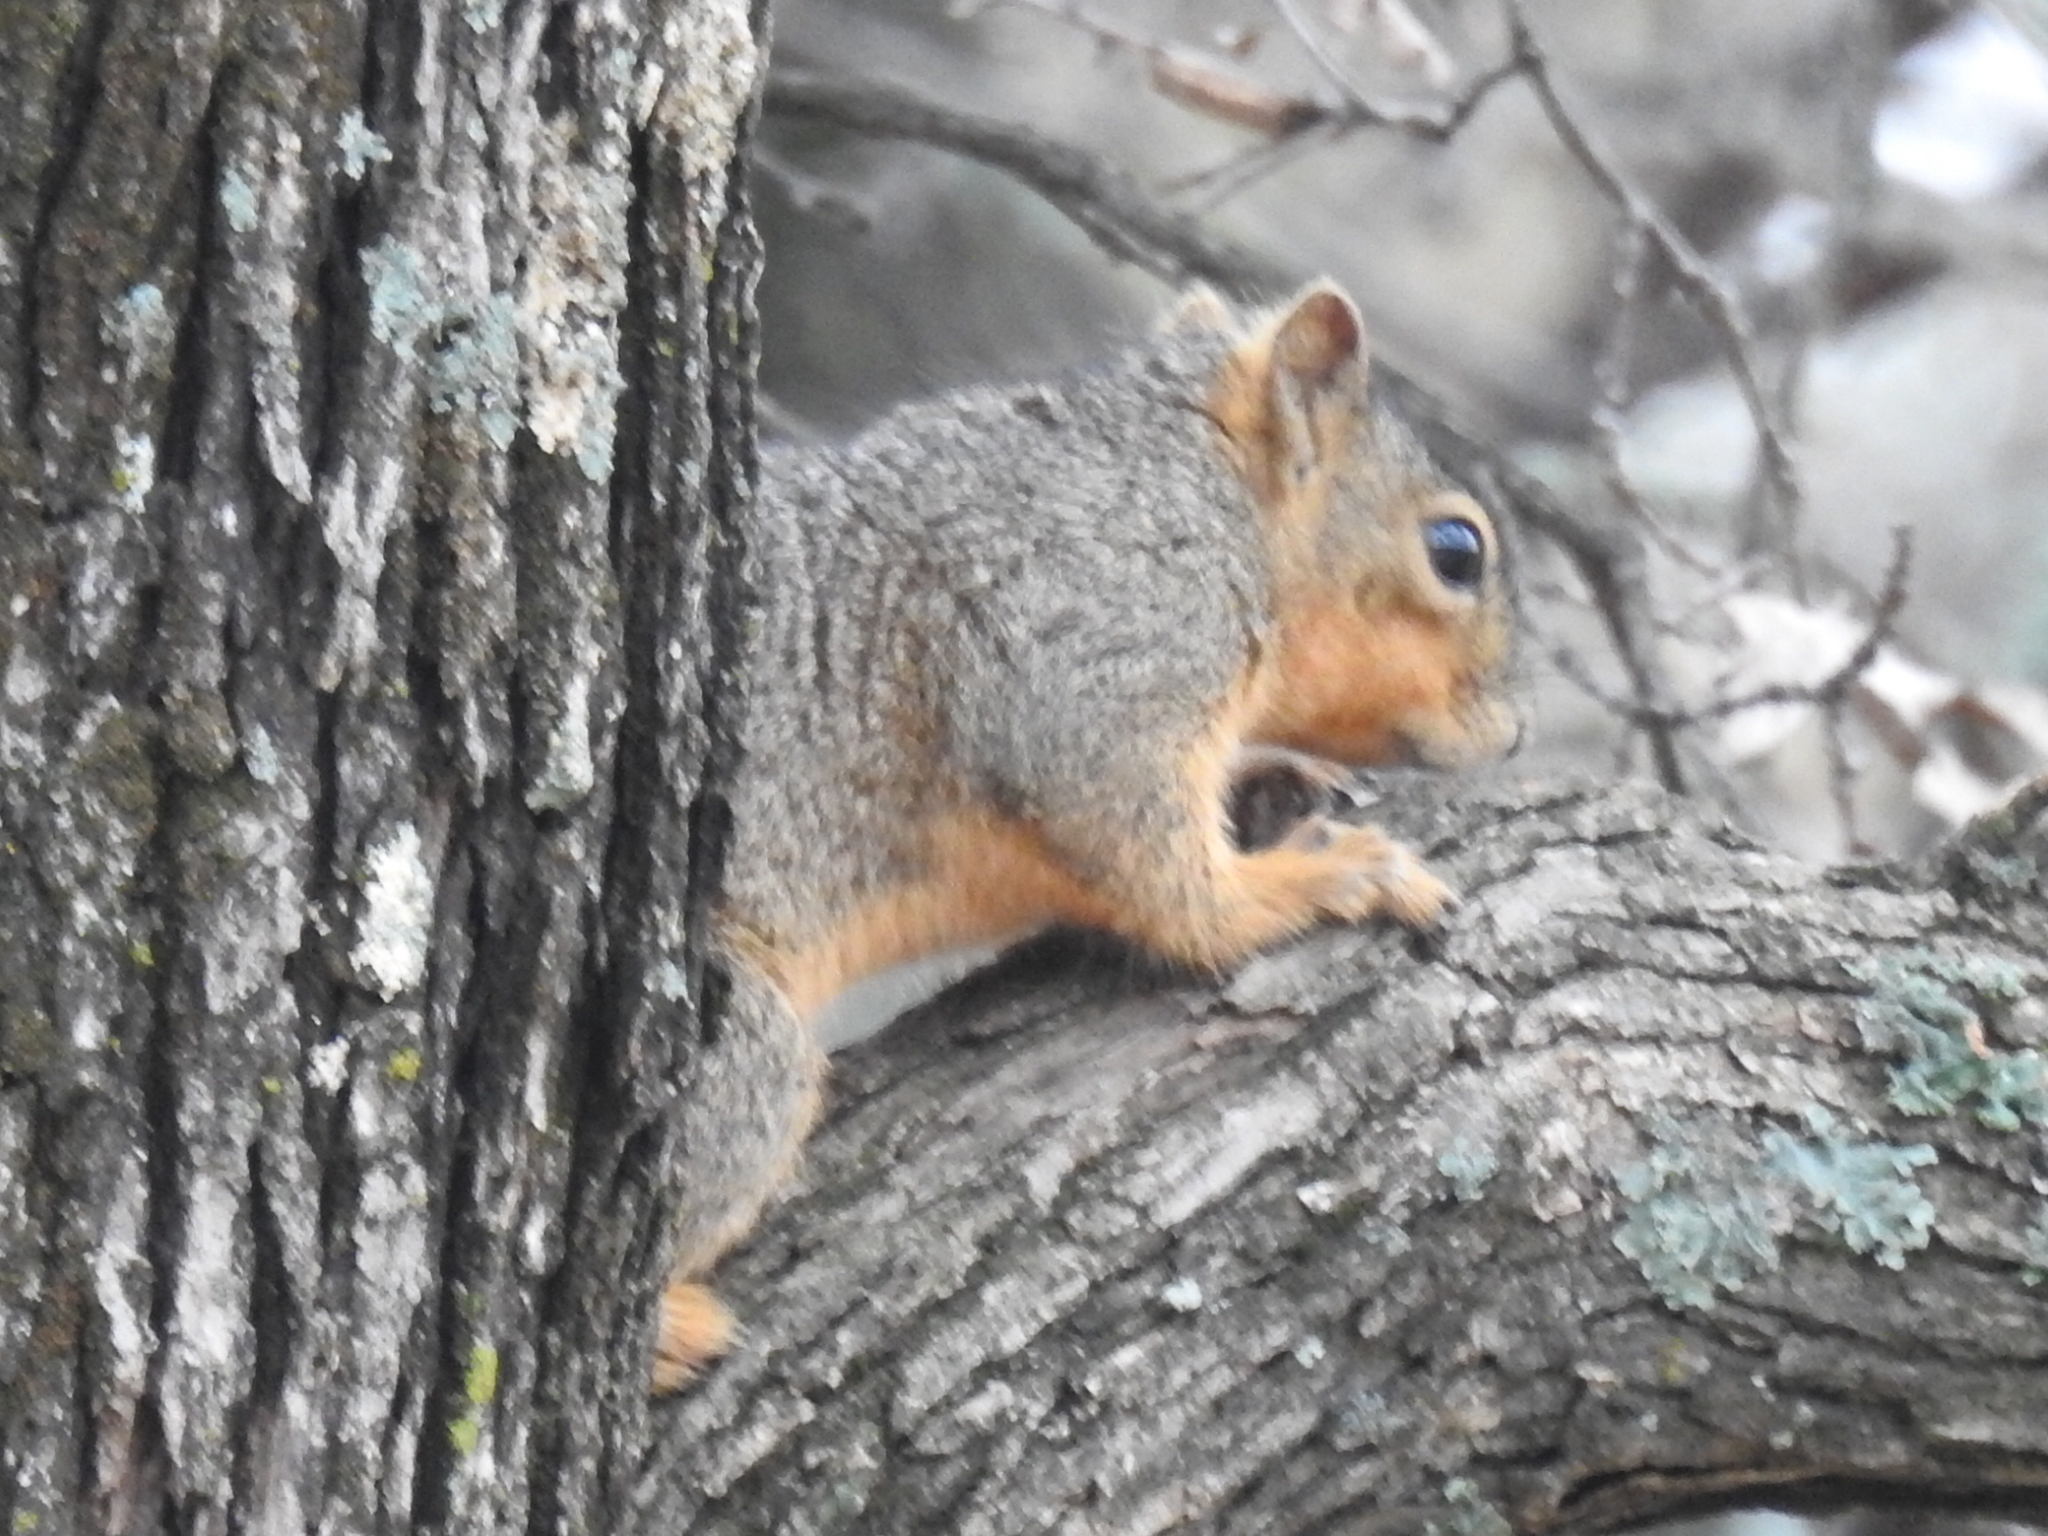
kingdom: Animalia
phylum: Chordata
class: Mammalia
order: Rodentia
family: Sciuridae
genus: Sciurus
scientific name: Sciurus niger
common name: Fox squirrel
